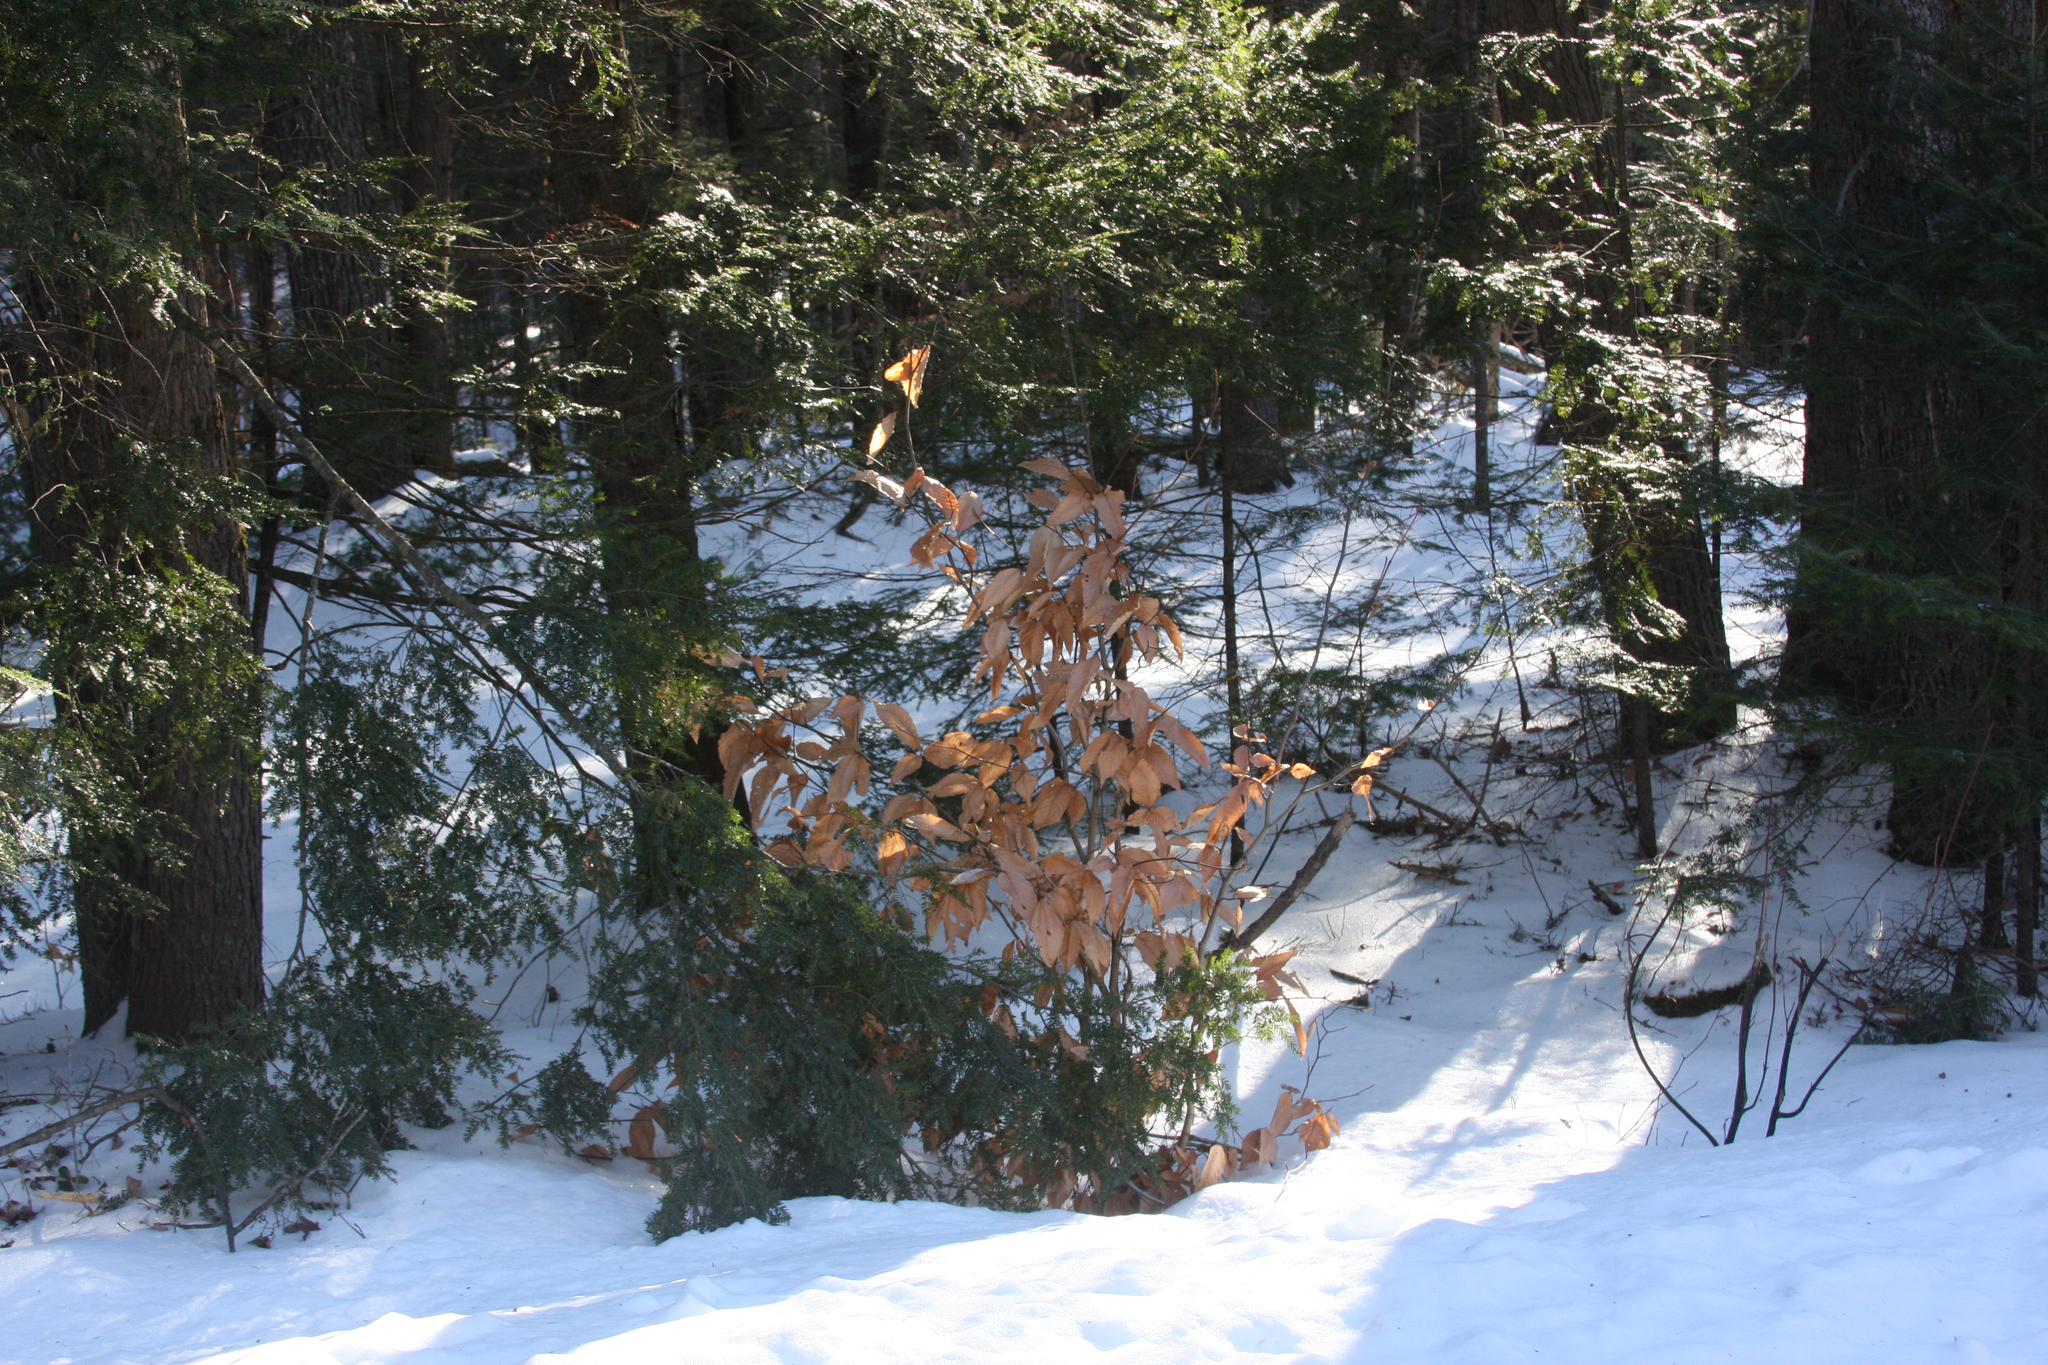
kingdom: Plantae
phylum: Tracheophyta
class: Magnoliopsida
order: Fagales
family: Fagaceae
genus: Fagus
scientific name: Fagus grandifolia
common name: American beech
